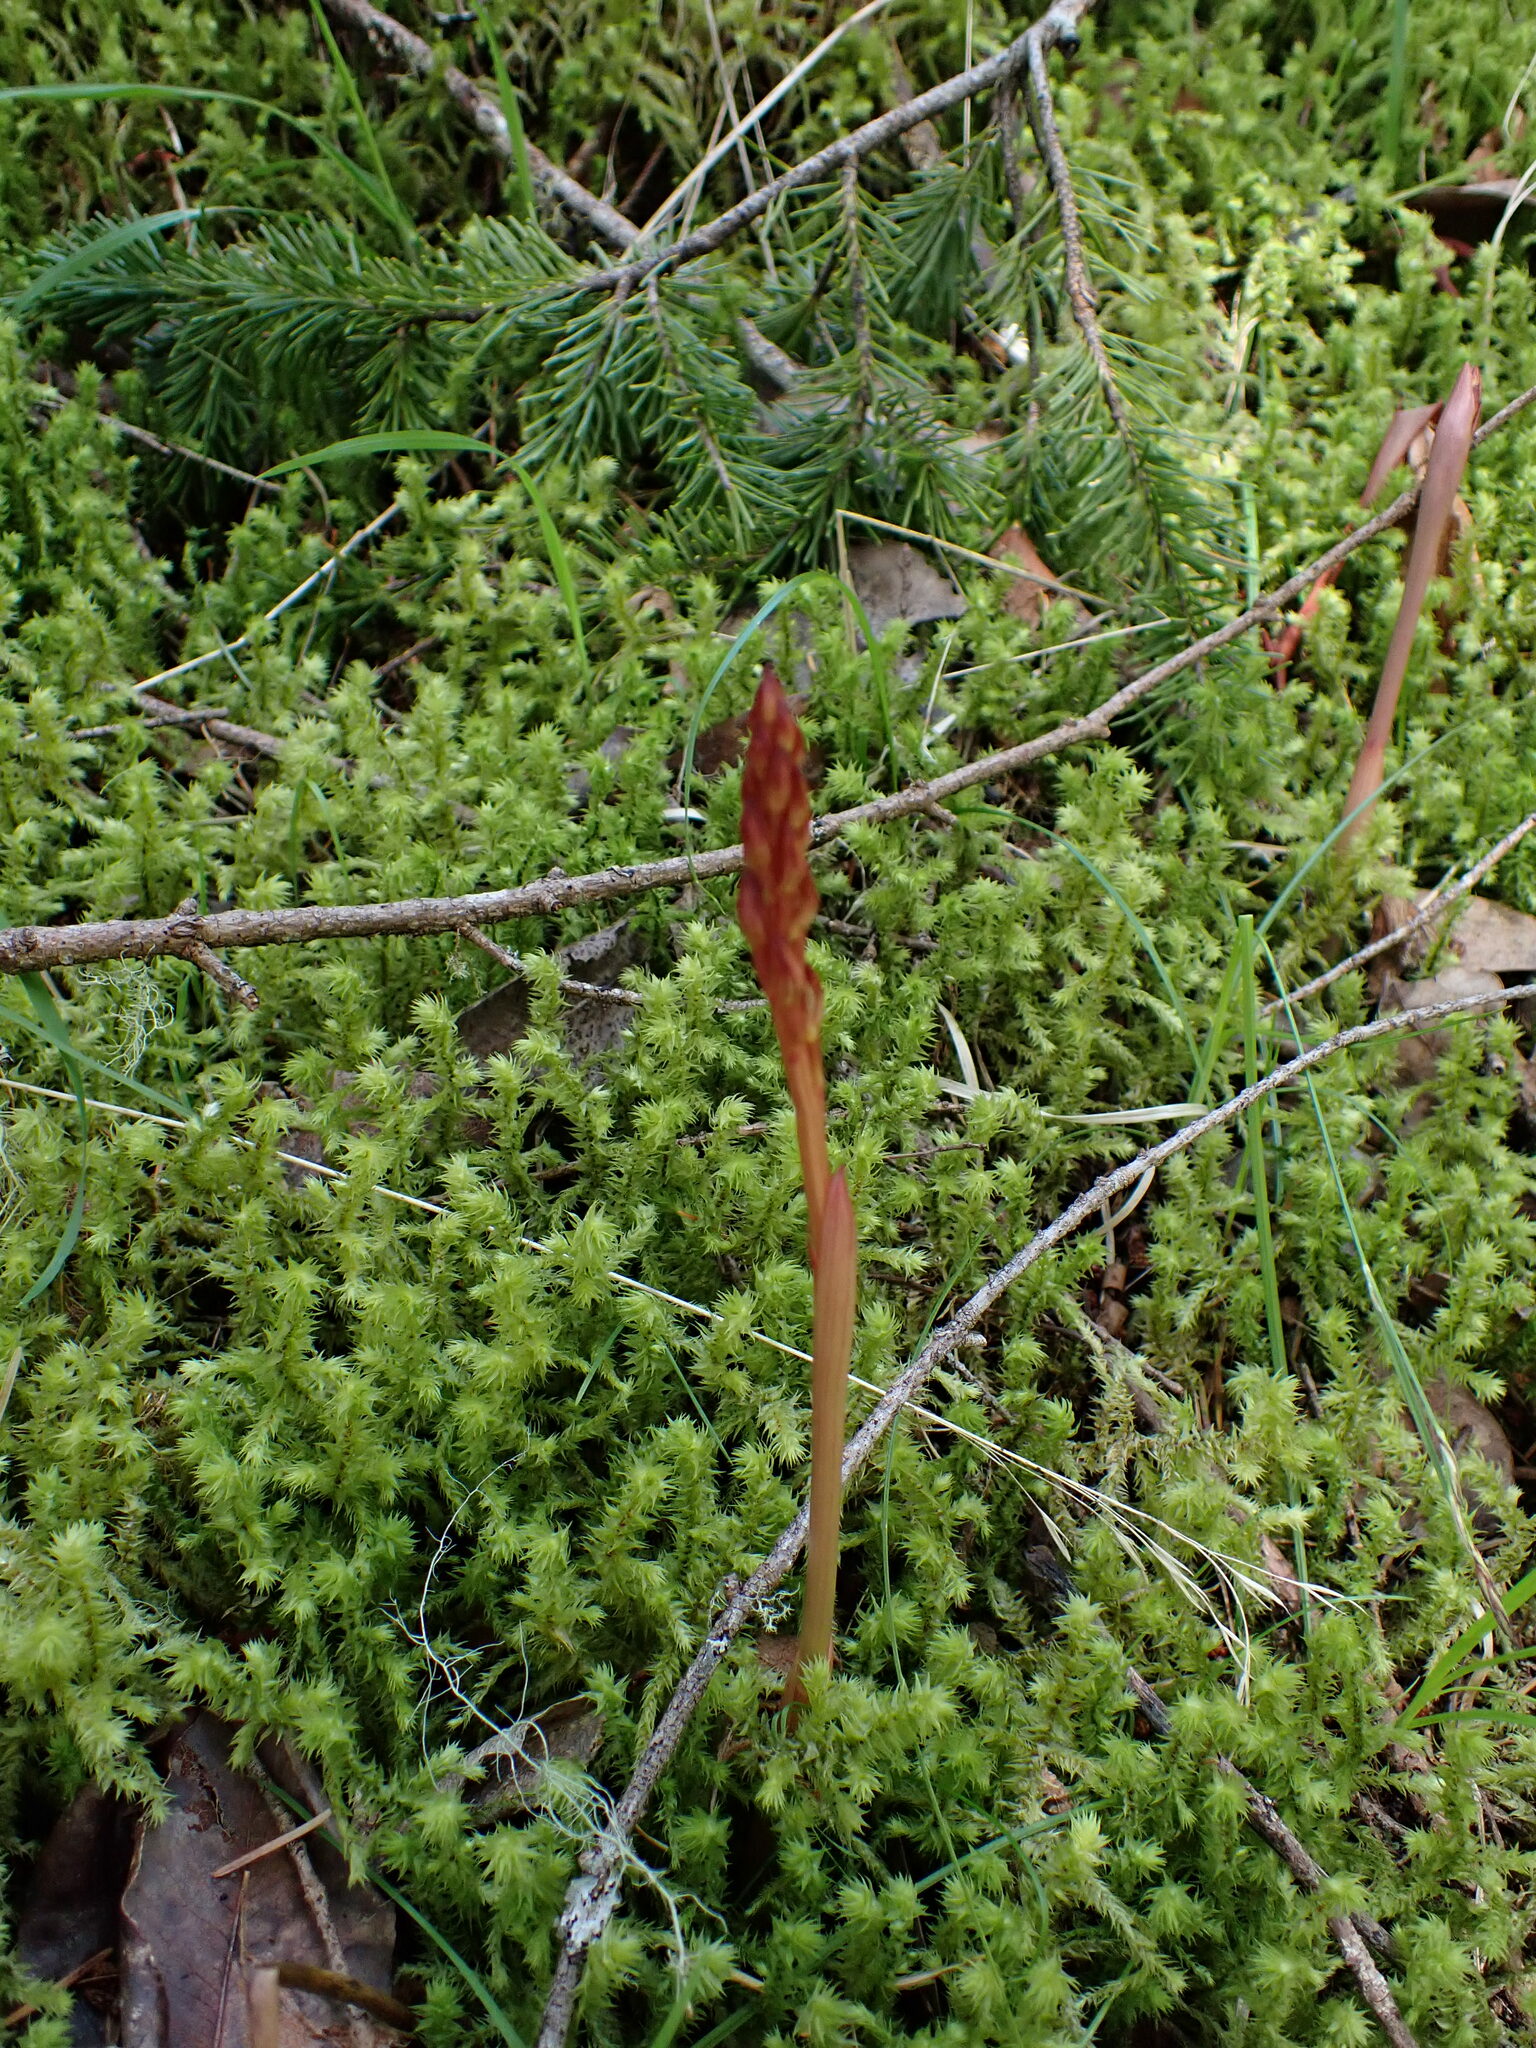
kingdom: Plantae
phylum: Tracheophyta
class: Liliopsida
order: Asparagales
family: Orchidaceae
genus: Corallorhiza
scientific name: Corallorhiza maculata
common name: Spotted coralroot
